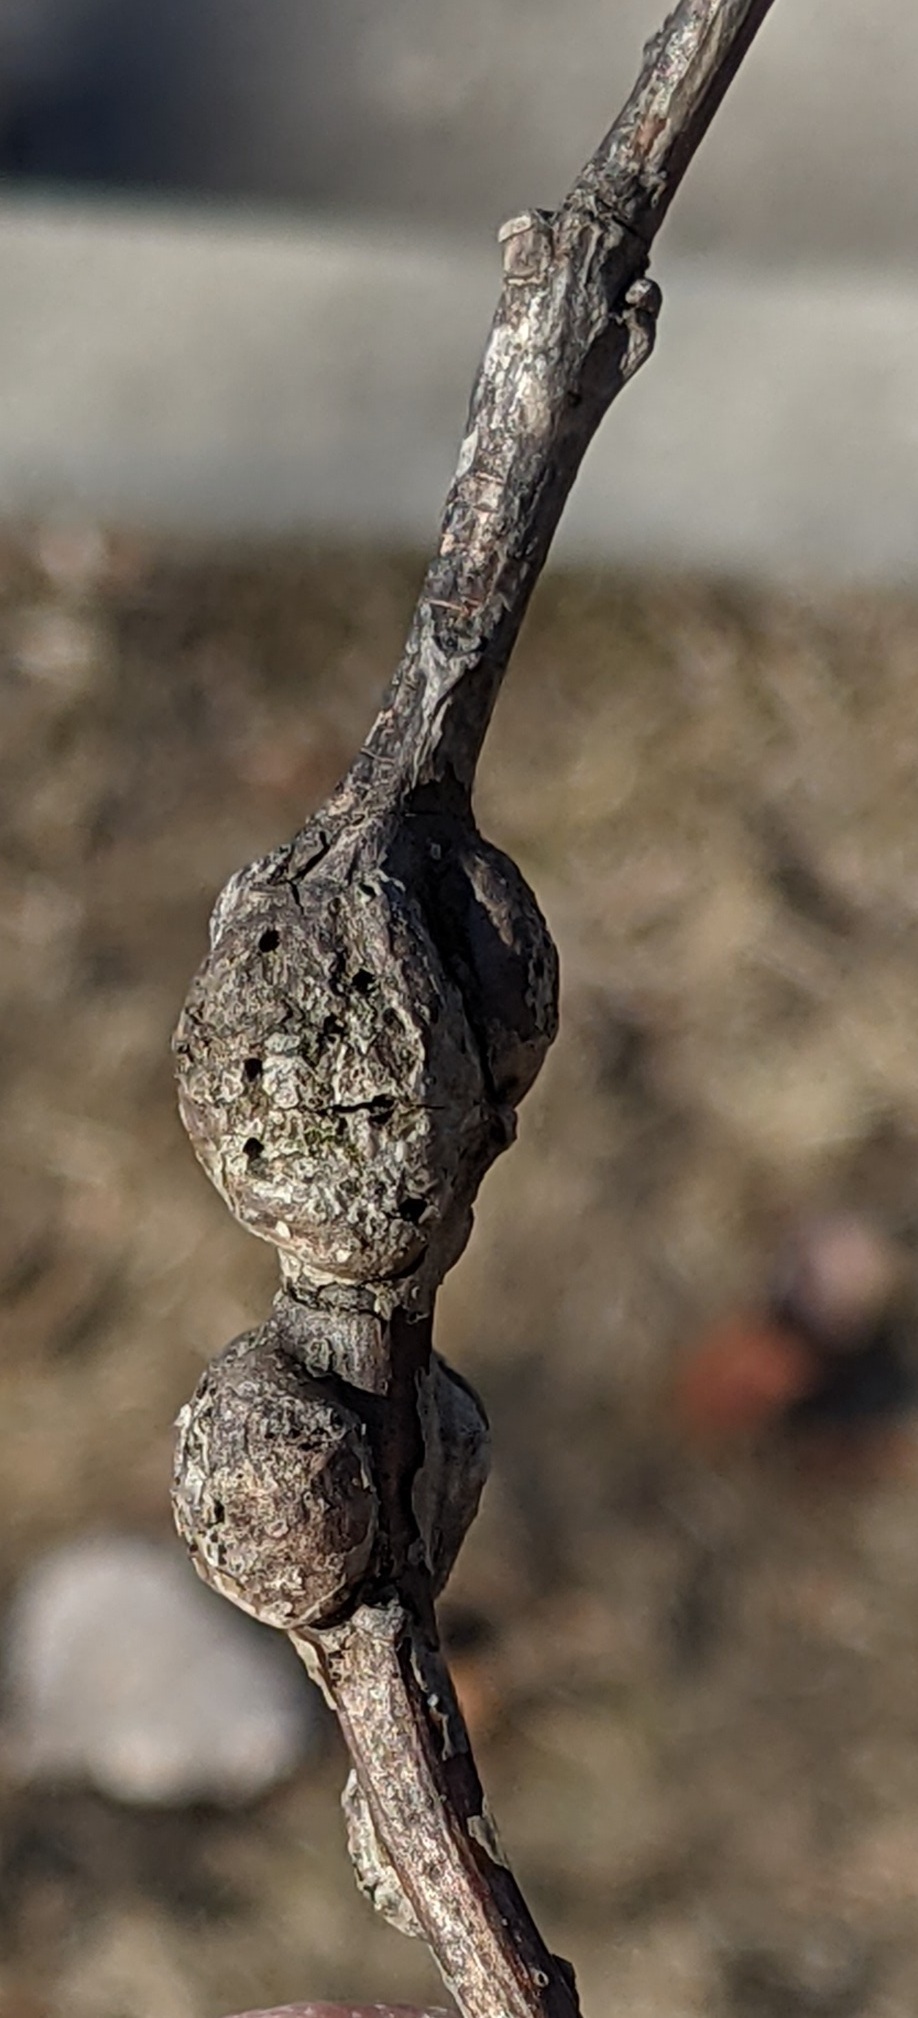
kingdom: Animalia
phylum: Arthropoda
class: Insecta
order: Hymenoptera
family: Cynipidae
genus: Neuroterus
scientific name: Neuroterus quercusbaccarum
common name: Common spangle gall
